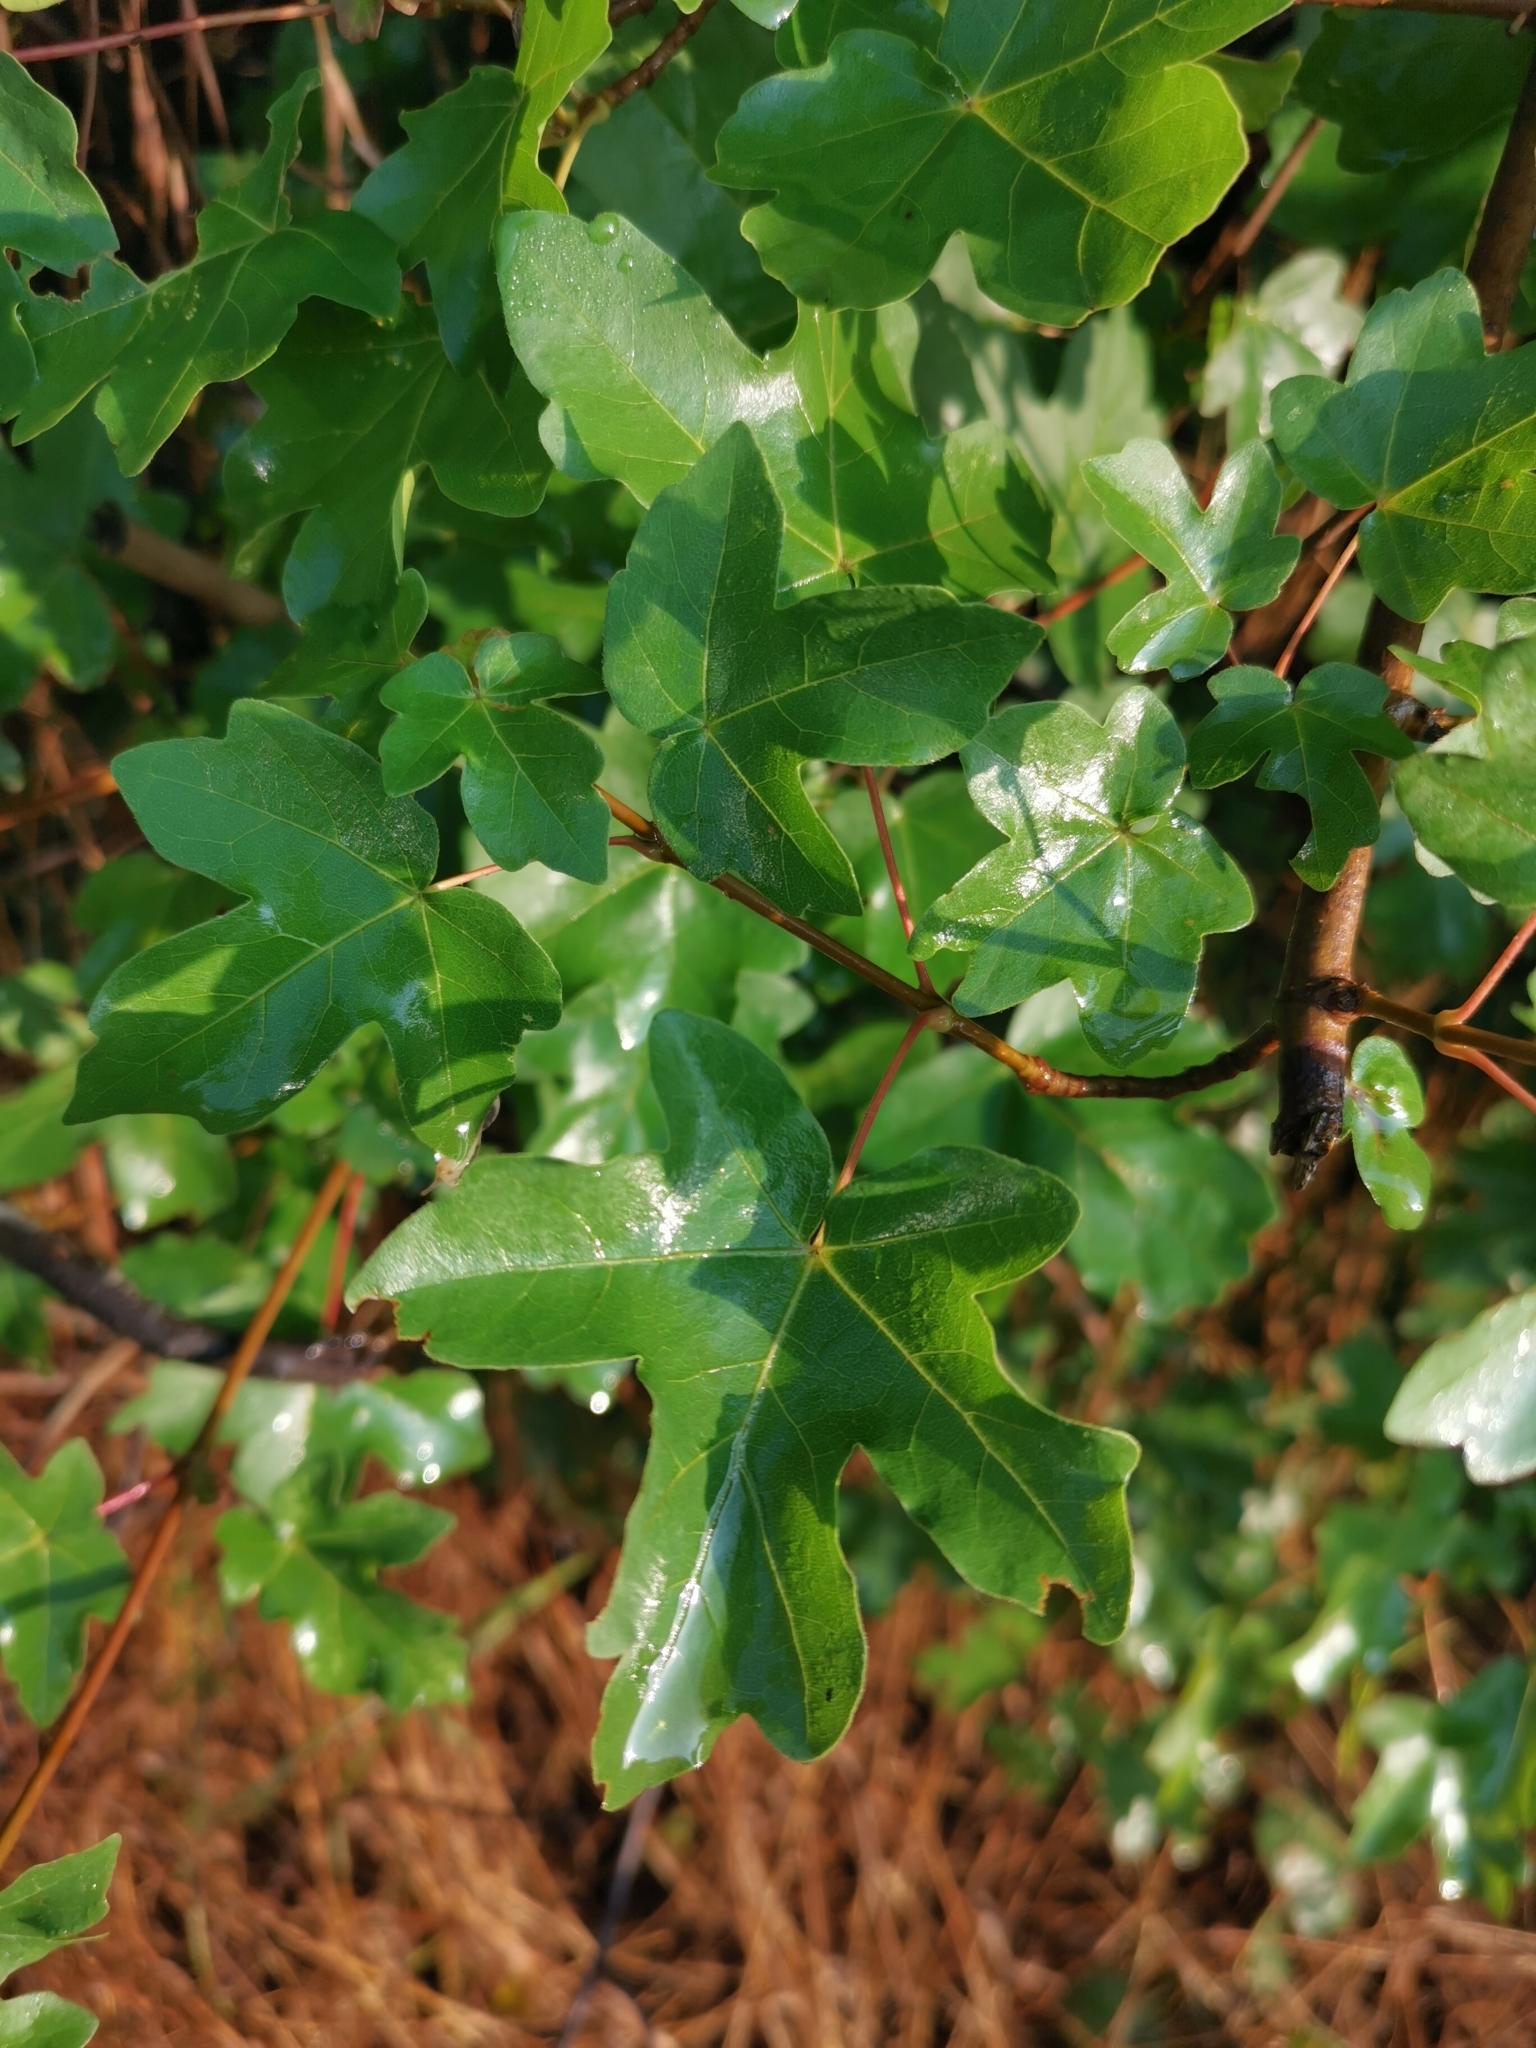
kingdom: Plantae
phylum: Tracheophyta
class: Magnoliopsida
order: Sapindales
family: Sapindaceae
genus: Acer
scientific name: Acer campestre
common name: Field maple
